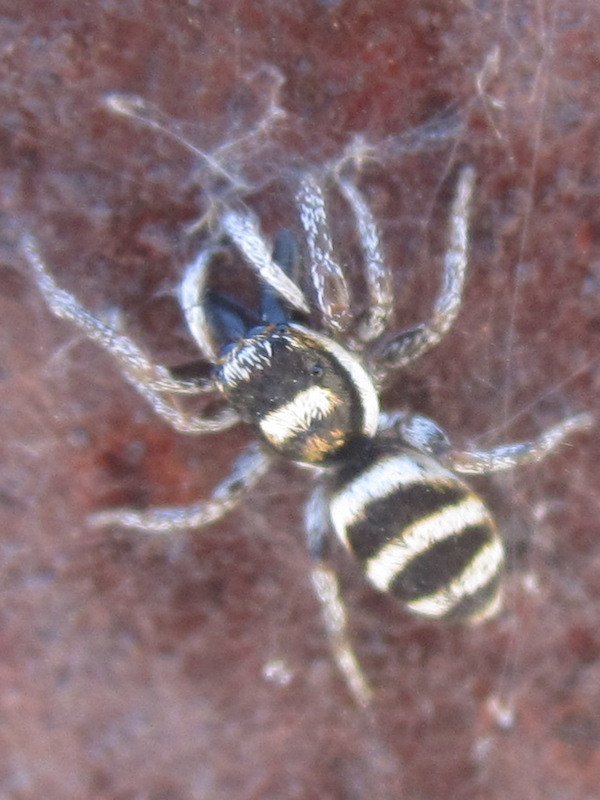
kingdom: Animalia
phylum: Arthropoda
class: Arachnida
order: Araneae
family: Salticidae
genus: Salticus
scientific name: Salticus austinensis
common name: Jumping spiders
